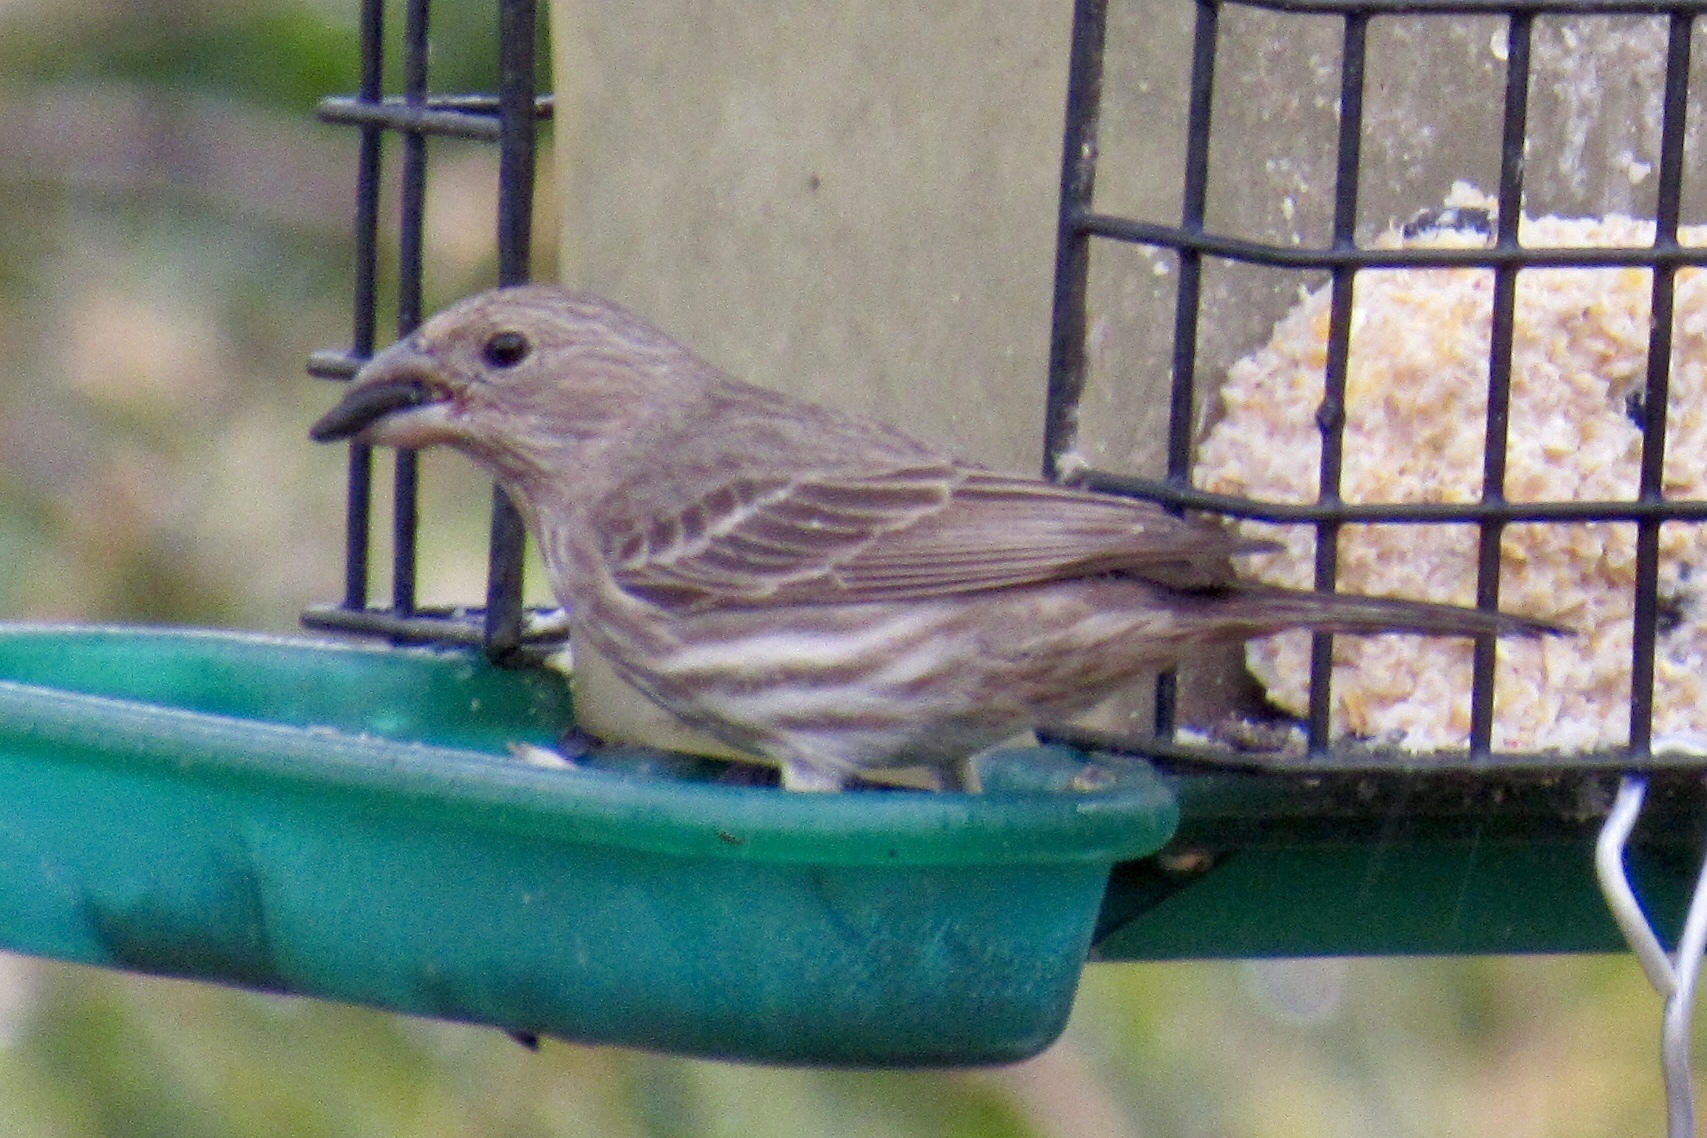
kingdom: Animalia
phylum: Chordata
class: Aves
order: Passeriformes
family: Fringillidae
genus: Haemorhous
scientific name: Haemorhous mexicanus
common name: House finch
